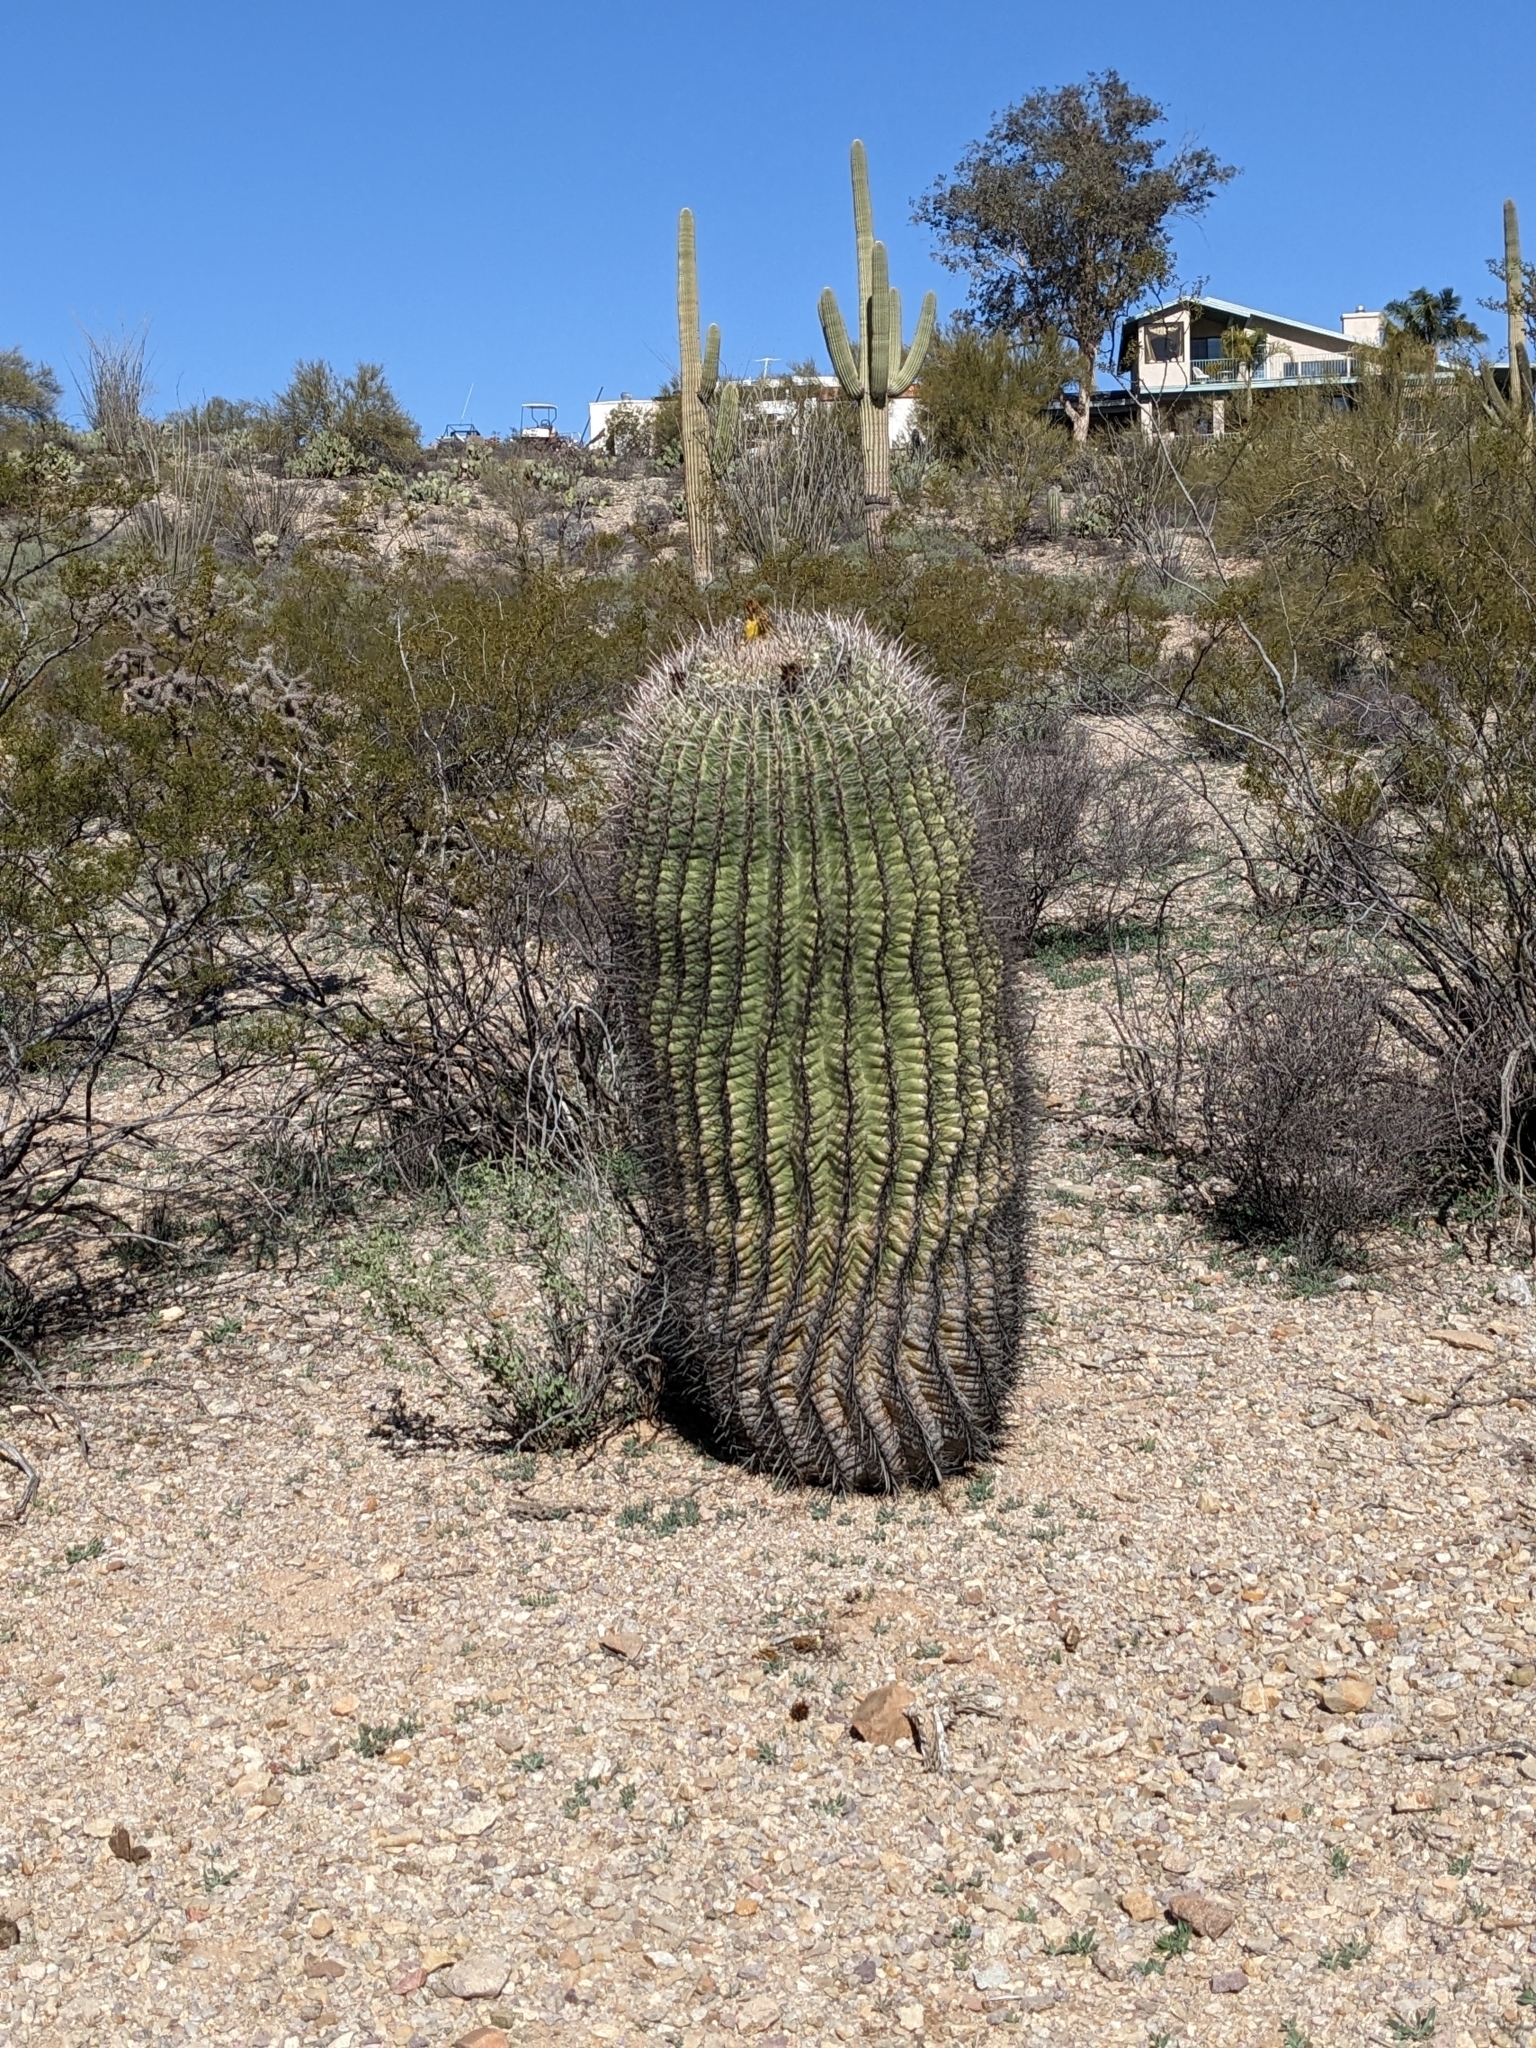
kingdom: Plantae
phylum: Tracheophyta
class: Magnoliopsida
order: Caryophyllales
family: Cactaceae
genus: Ferocactus
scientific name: Ferocactus wislizeni
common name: Candy barrel cactus
